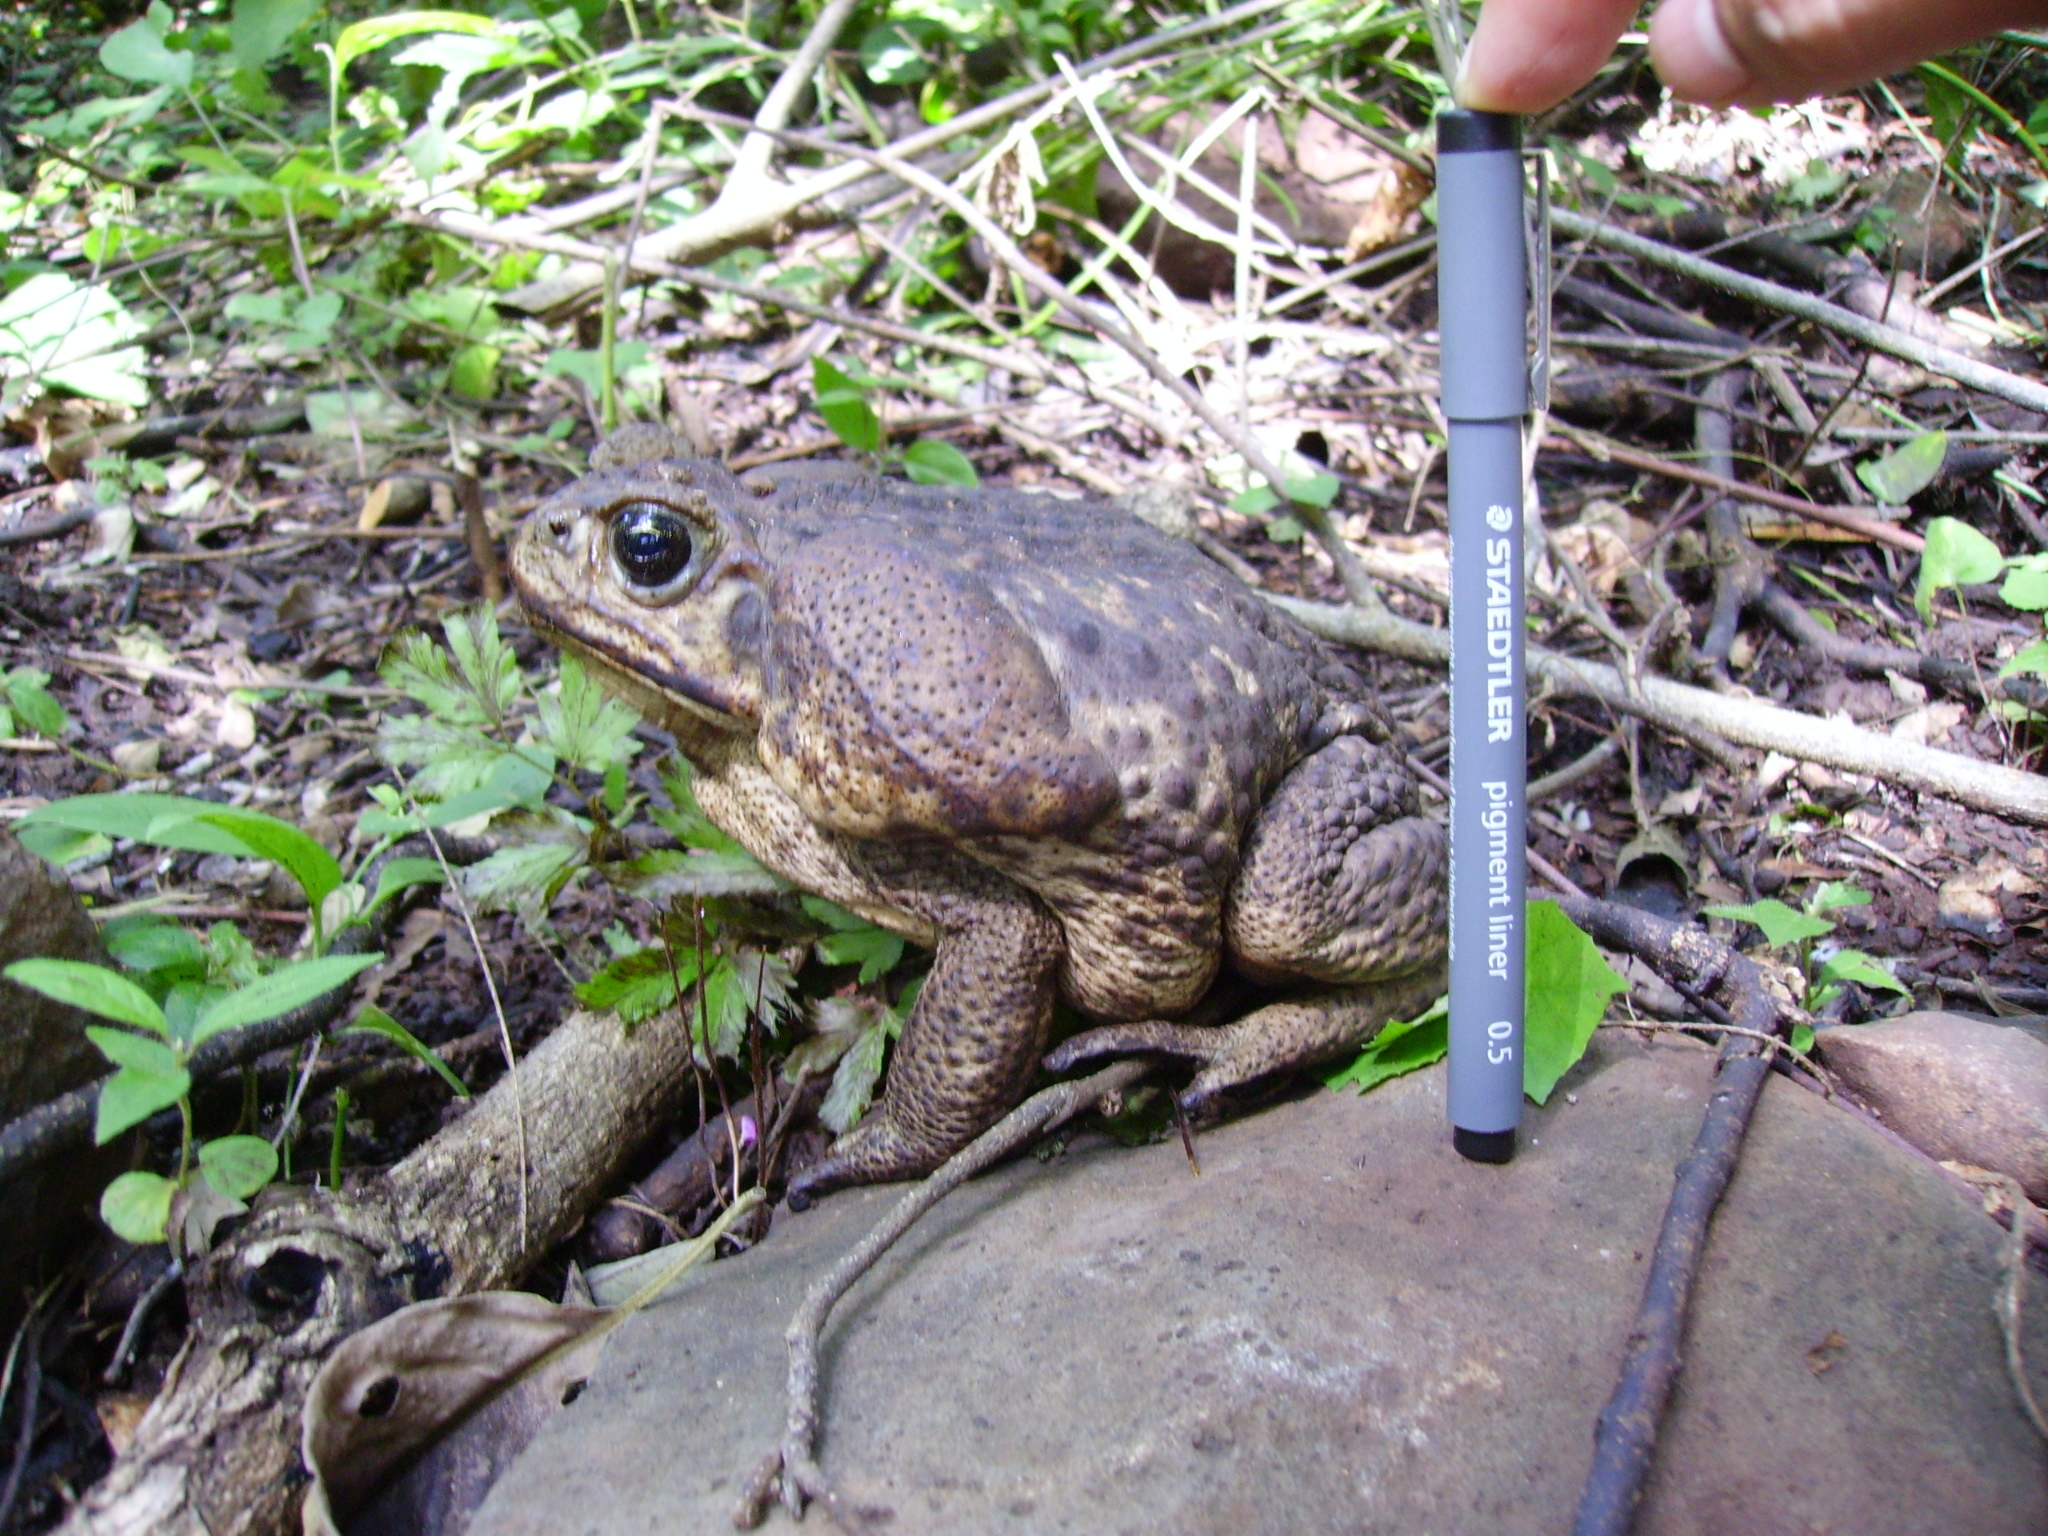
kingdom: Animalia
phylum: Chordata
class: Amphibia
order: Anura
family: Bufonidae
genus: Rhinella
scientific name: Rhinella horribilis
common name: Mesoamerican cane toad
